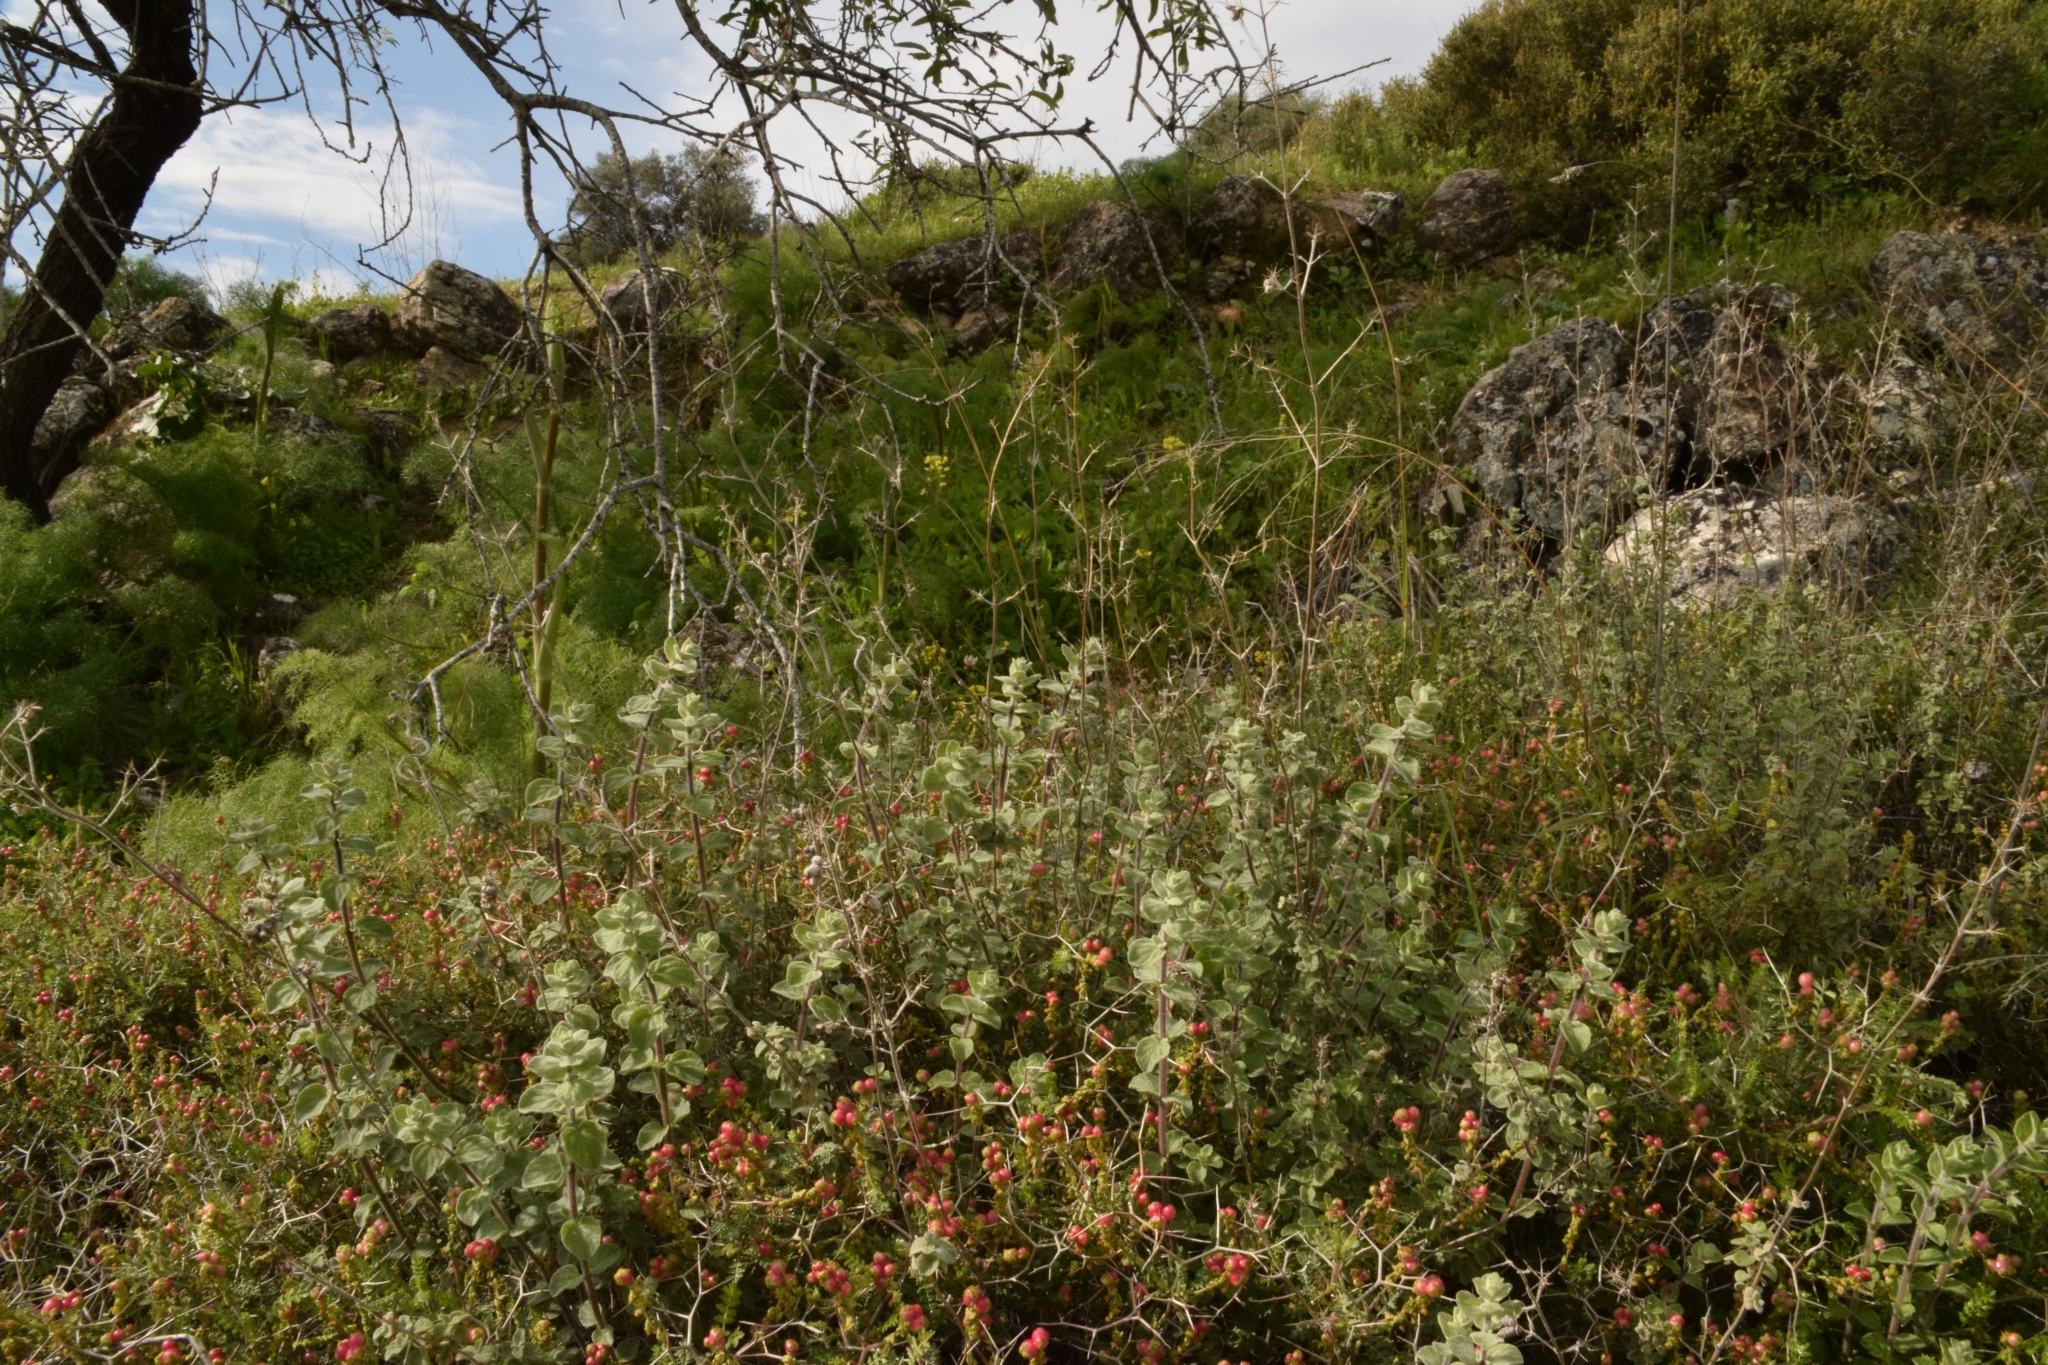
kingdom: Plantae
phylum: Tracheophyta
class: Magnoliopsida
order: Lamiales
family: Lamiaceae
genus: Origanum
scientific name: Origanum syriacum
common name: Biblical-hyssop
